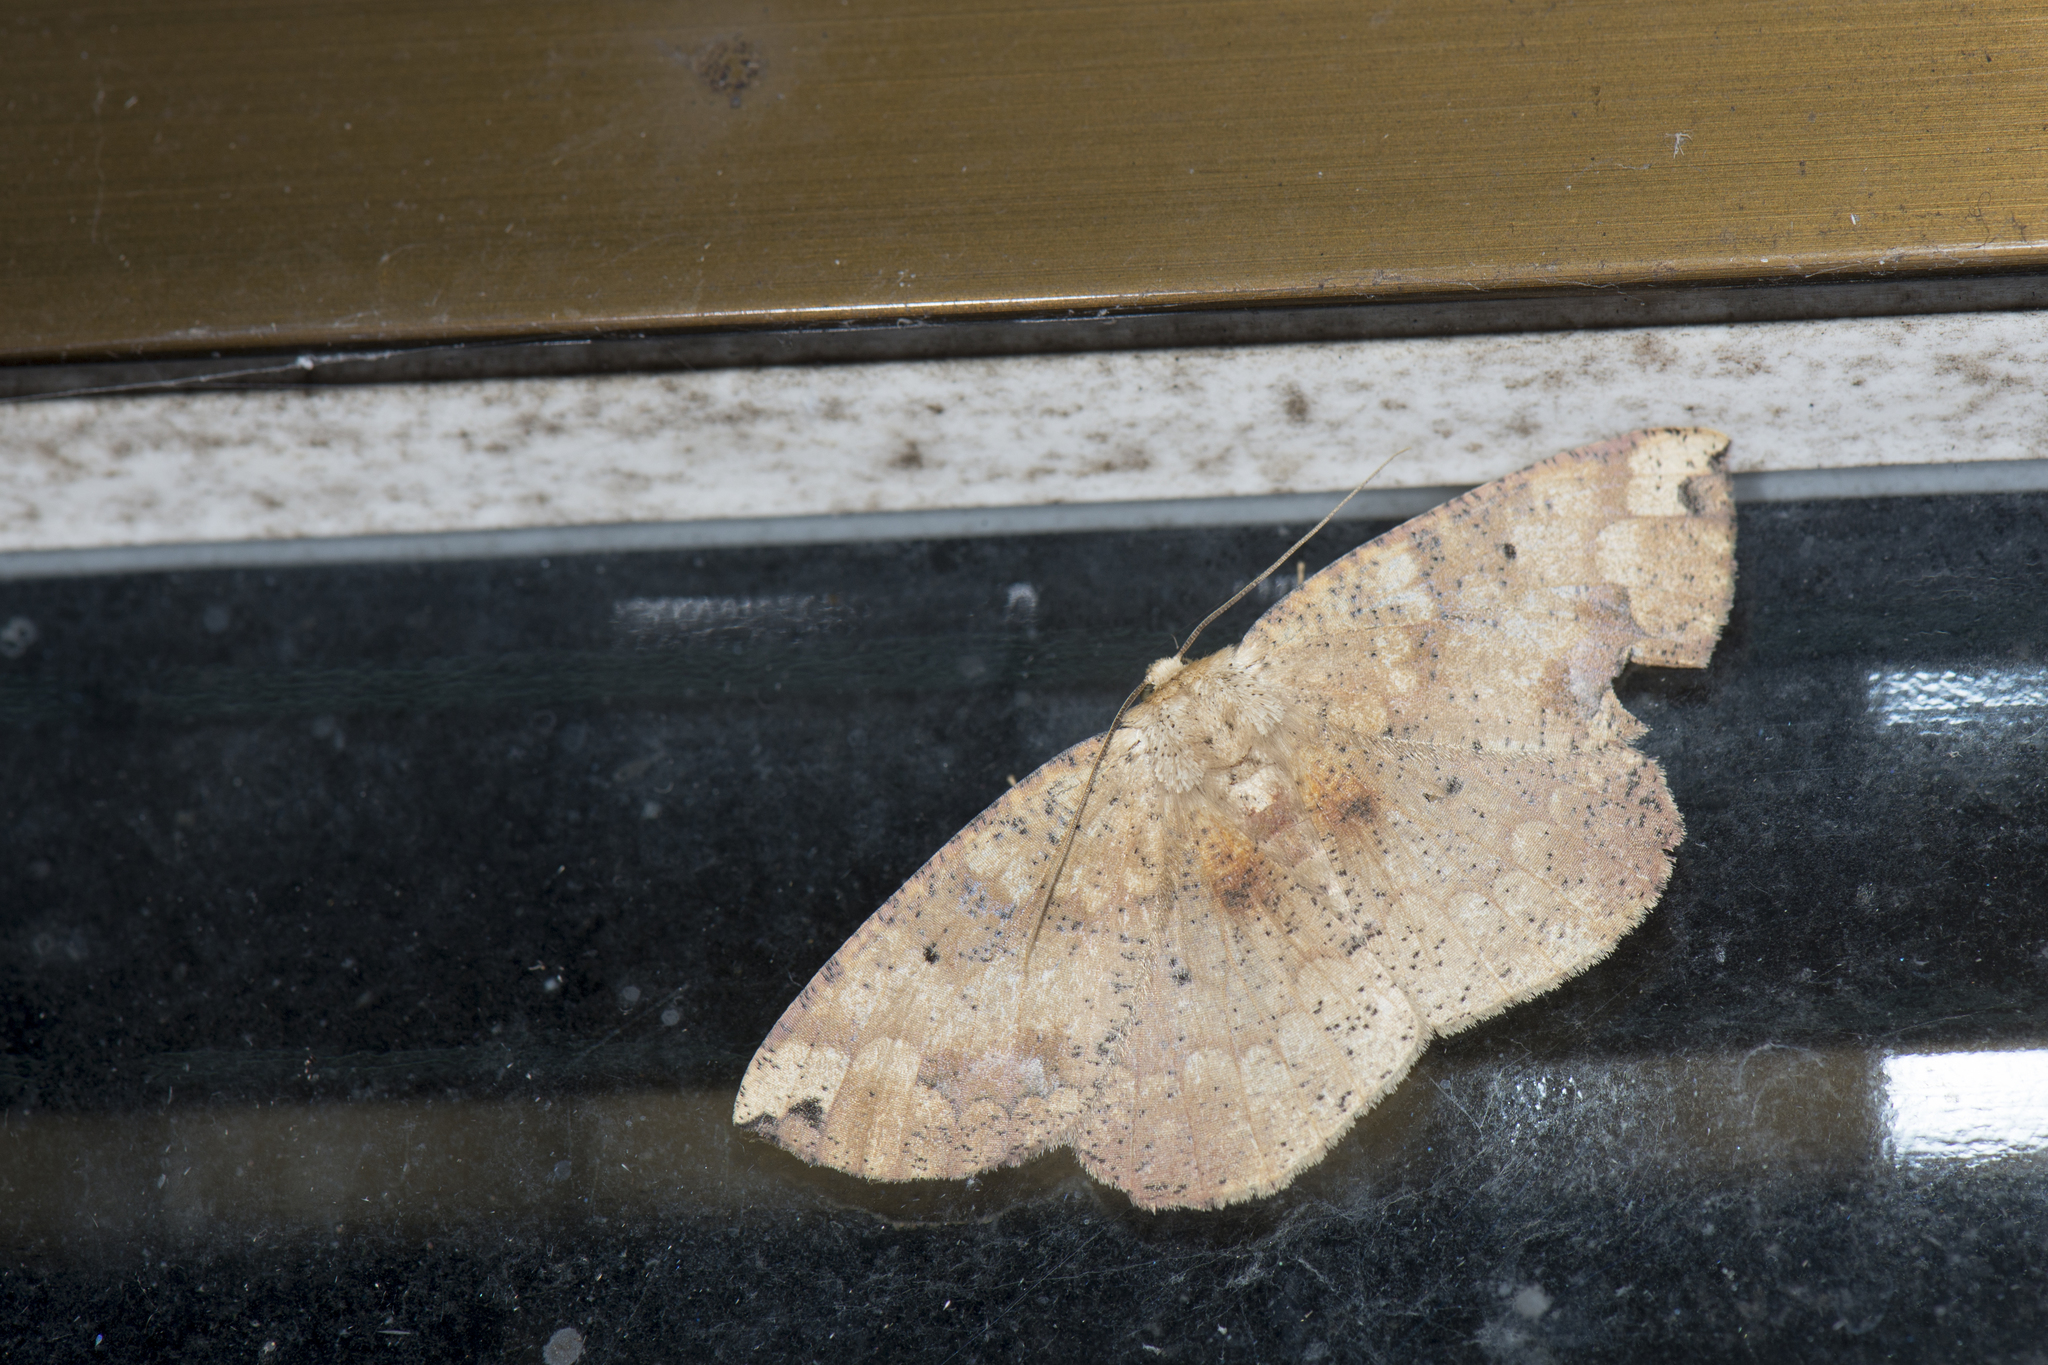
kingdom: Animalia
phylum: Arthropoda
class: Insecta
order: Lepidoptera
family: Geometridae
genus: Heterostegania
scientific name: Heterostegania lunulosa
